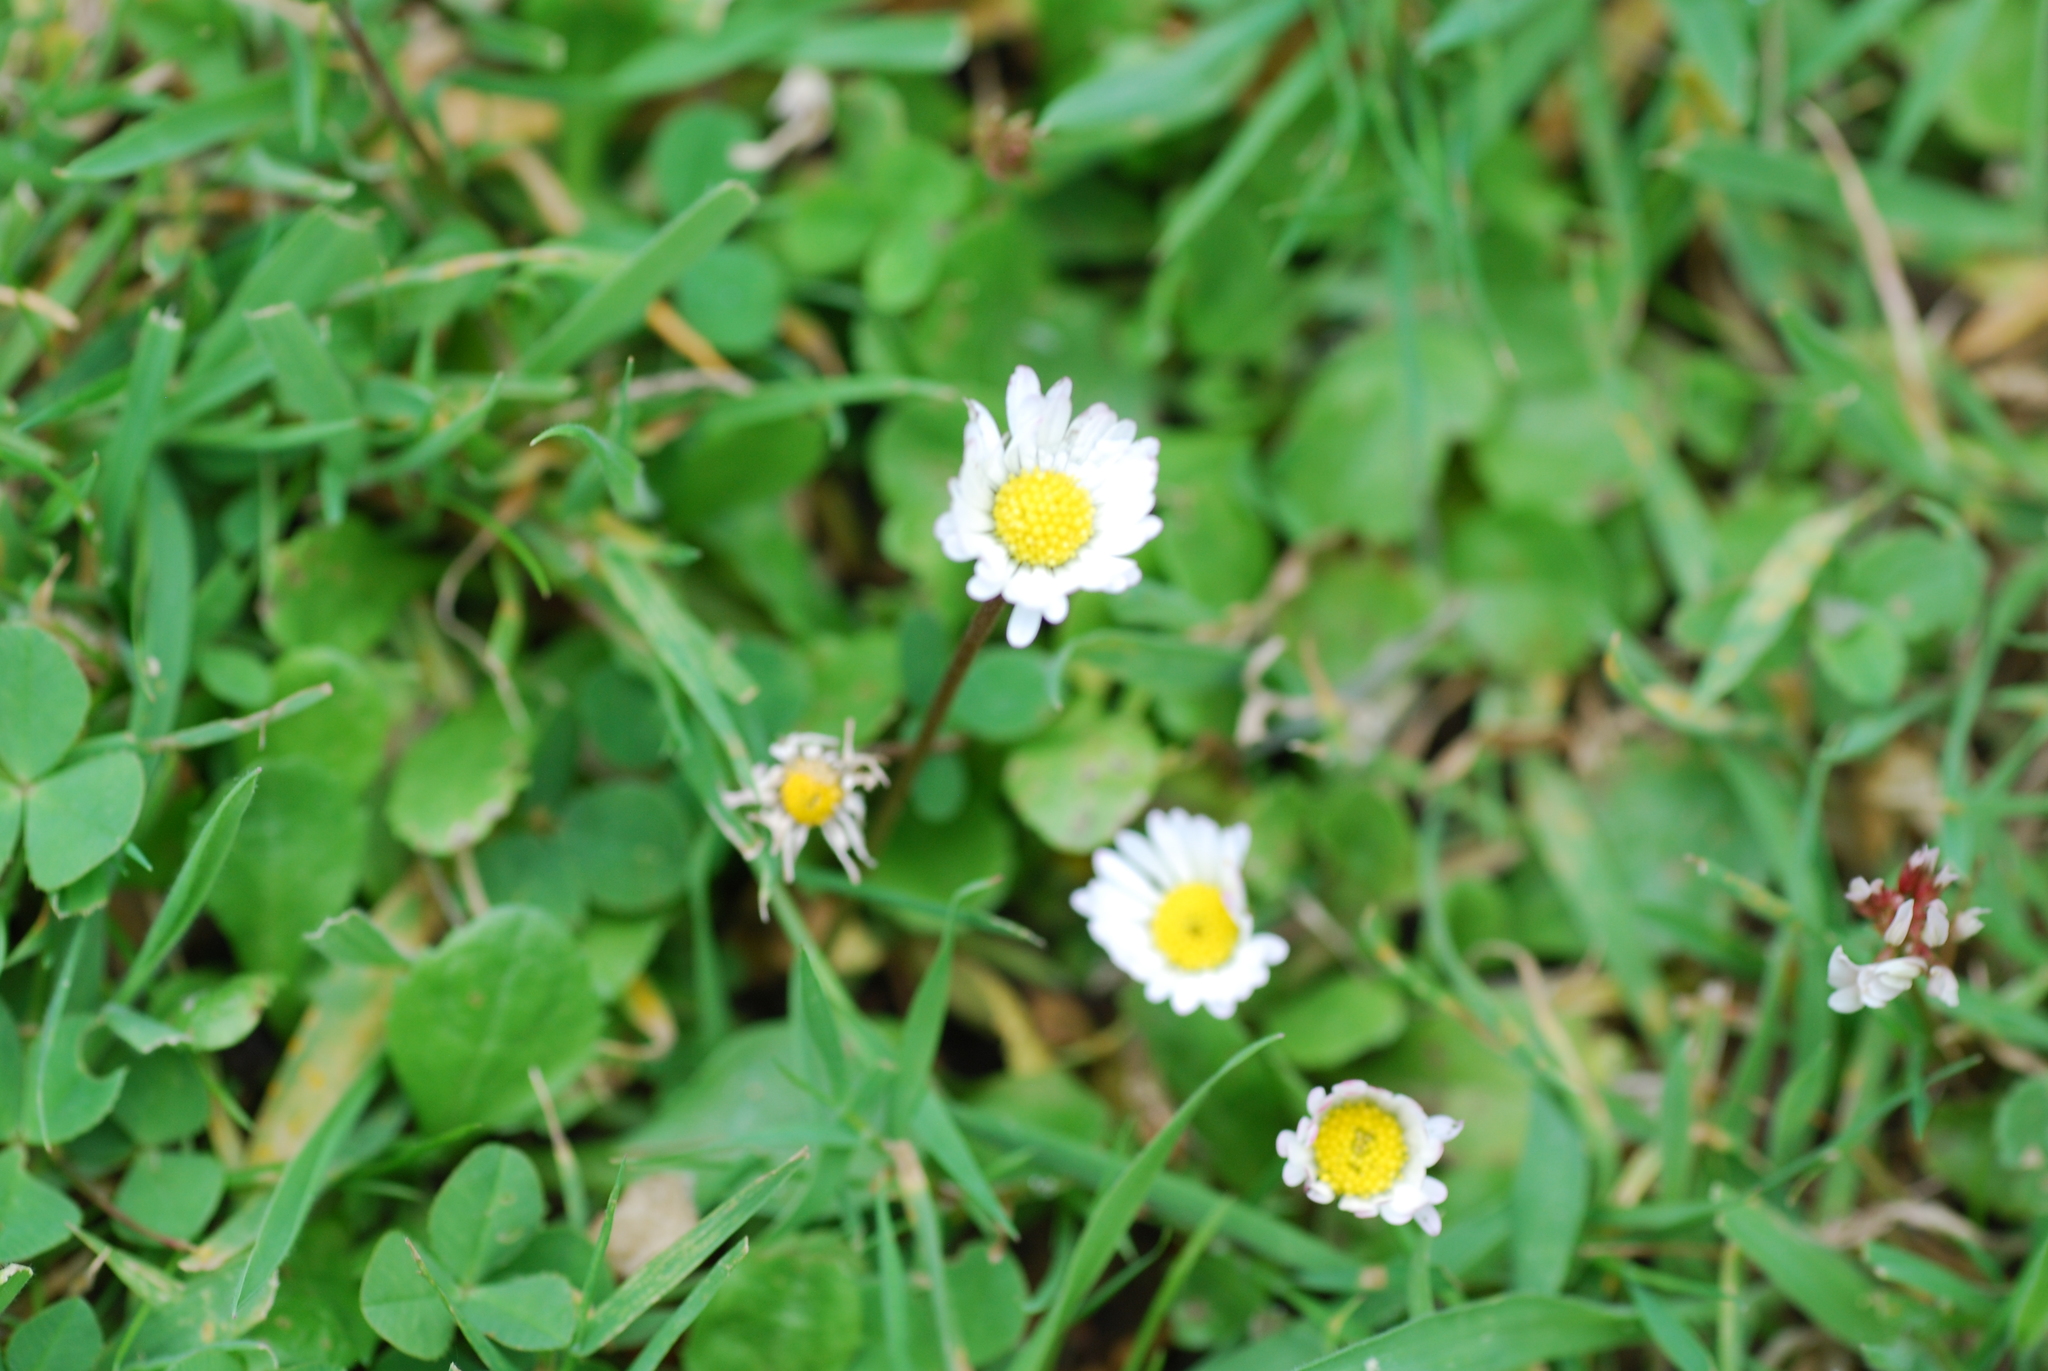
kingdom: Plantae
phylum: Tracheophyta
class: Magnoliopsida
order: Asterales
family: Asteraceae
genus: Bellis
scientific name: Bellis perennis
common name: Lawndaisy
